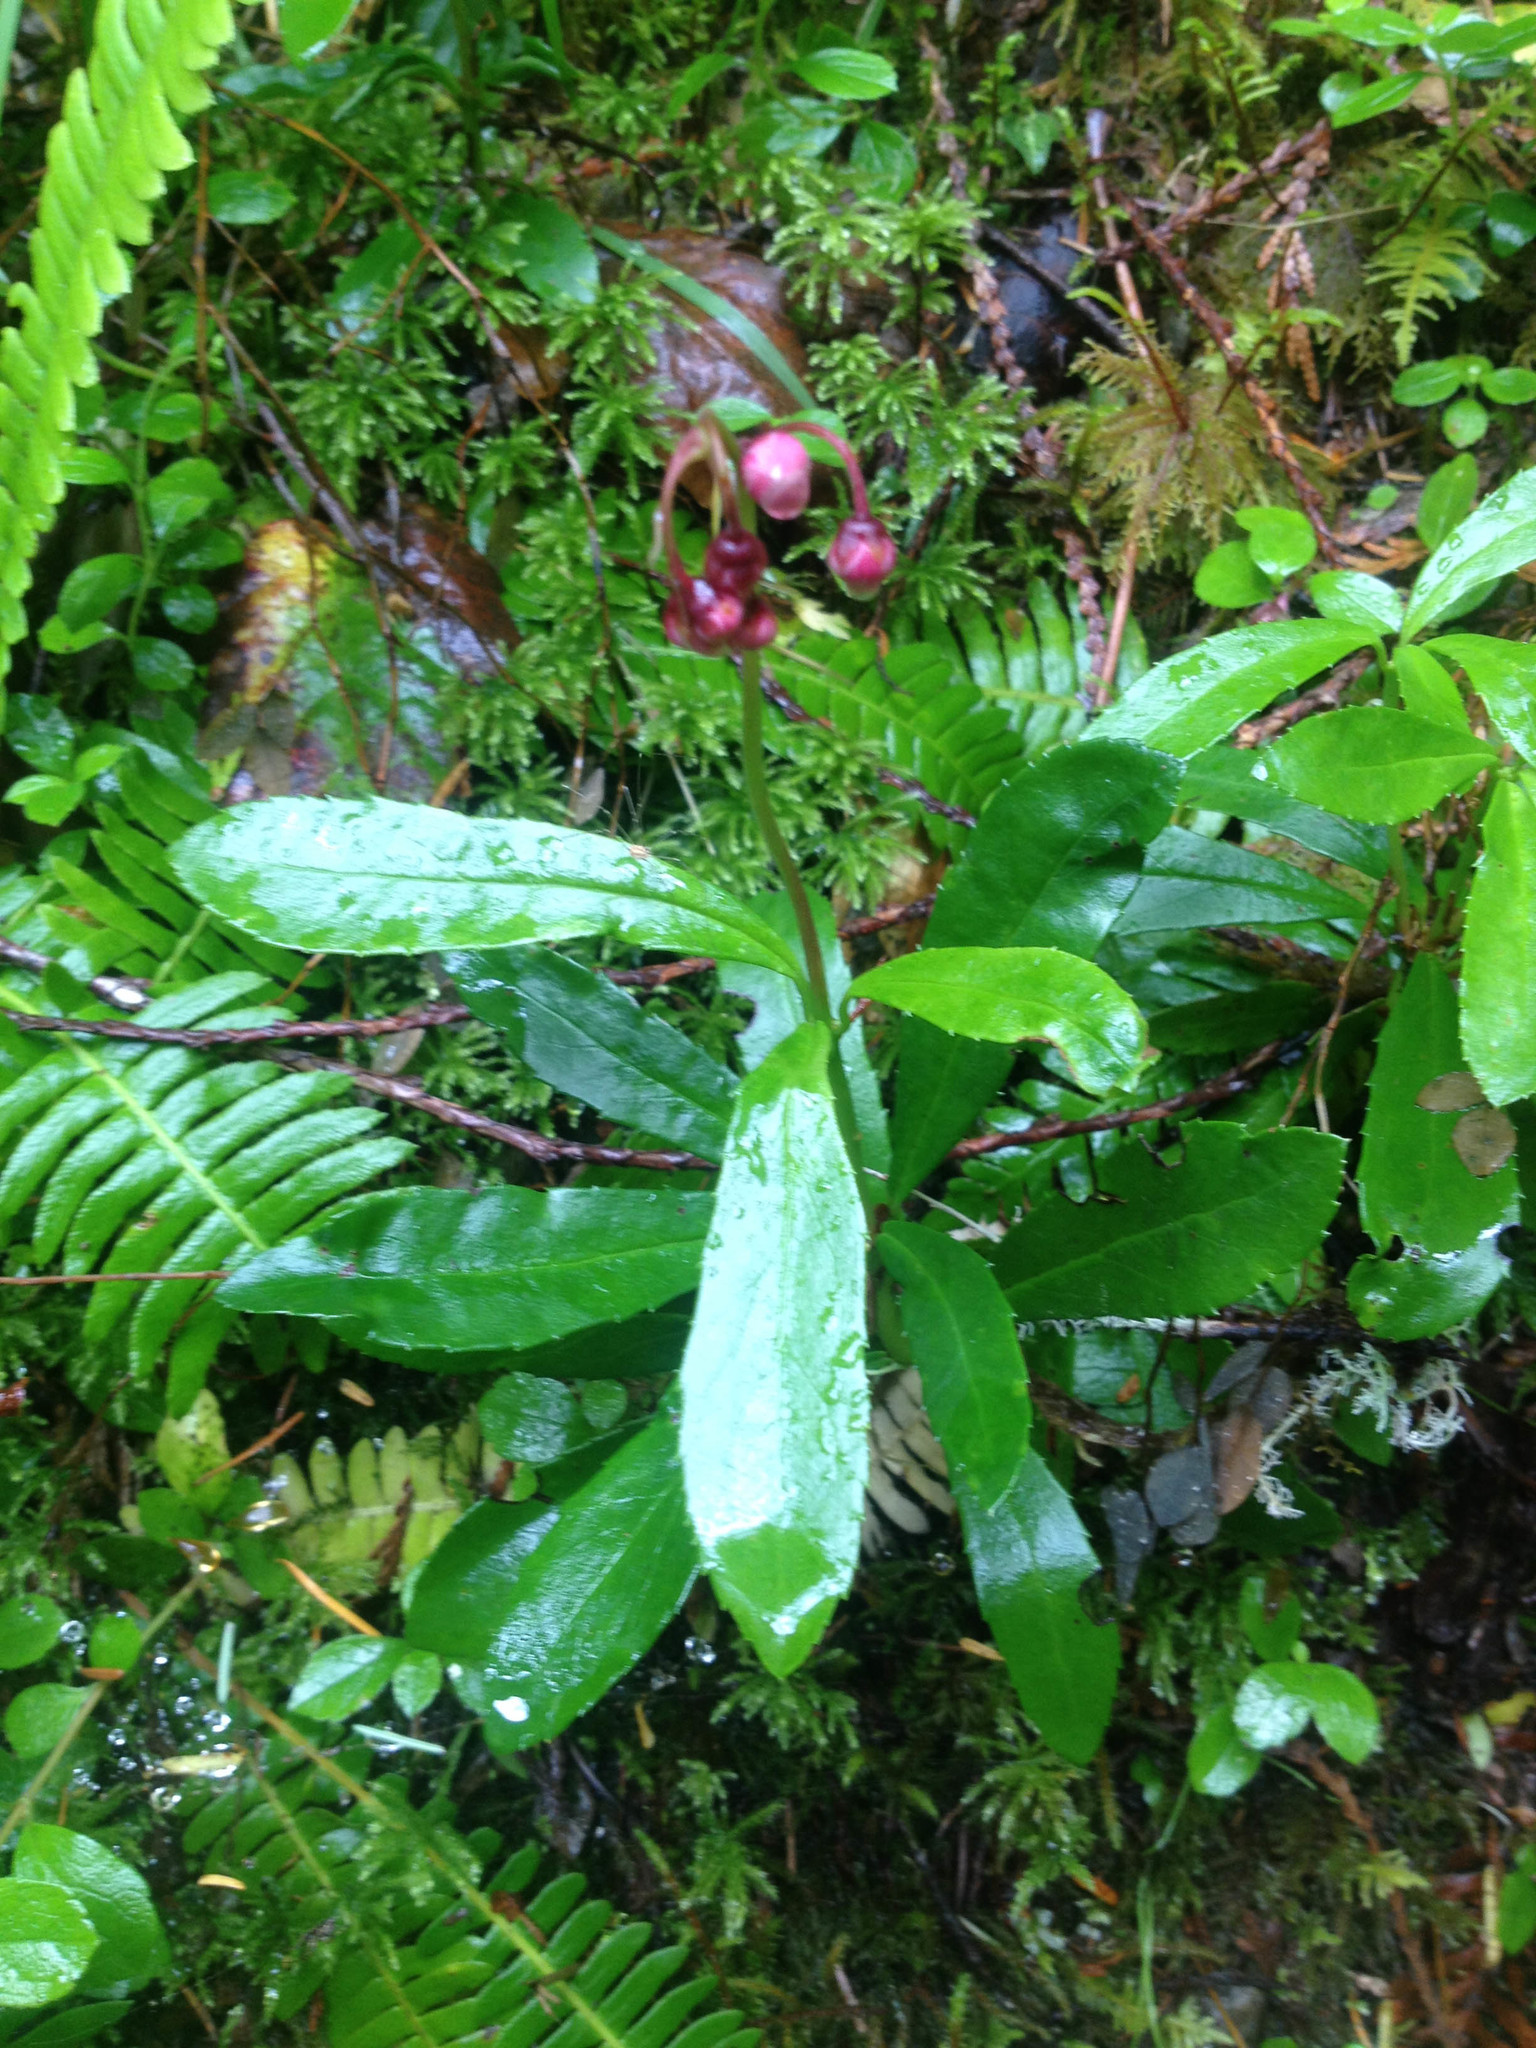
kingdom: Plantae
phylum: Tracheophyta
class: Magnoliopsida
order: Ericales
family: Ericaceae
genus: Chimaphila
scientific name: Chimaphila umbellata
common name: Pipsissewa
